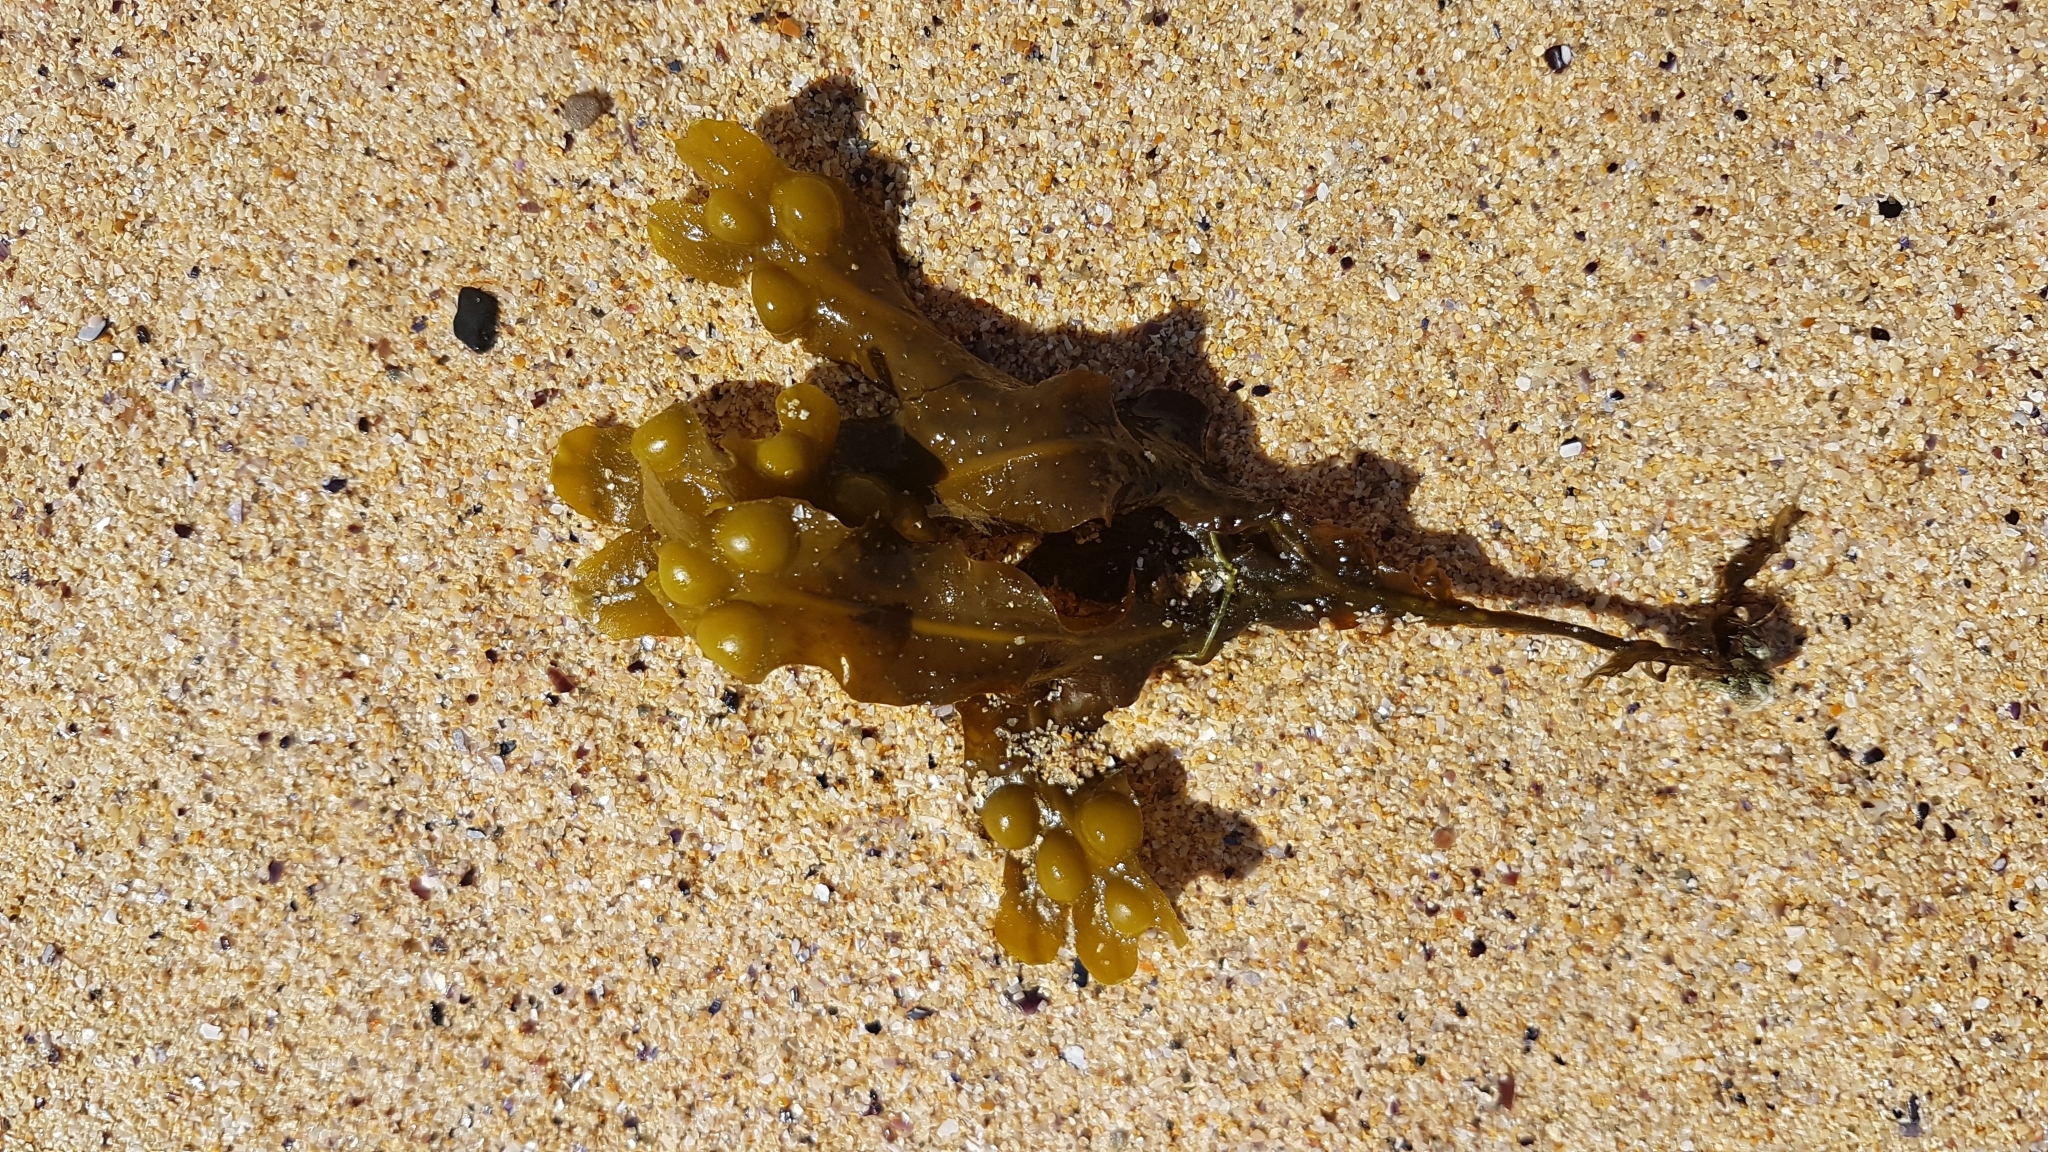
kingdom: Chromista
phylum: Ochrophyta
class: Phaeophyceae
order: Fucales
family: Fucaceae
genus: Fucus
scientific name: Fucus vesiculosus
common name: Bladder wrack
